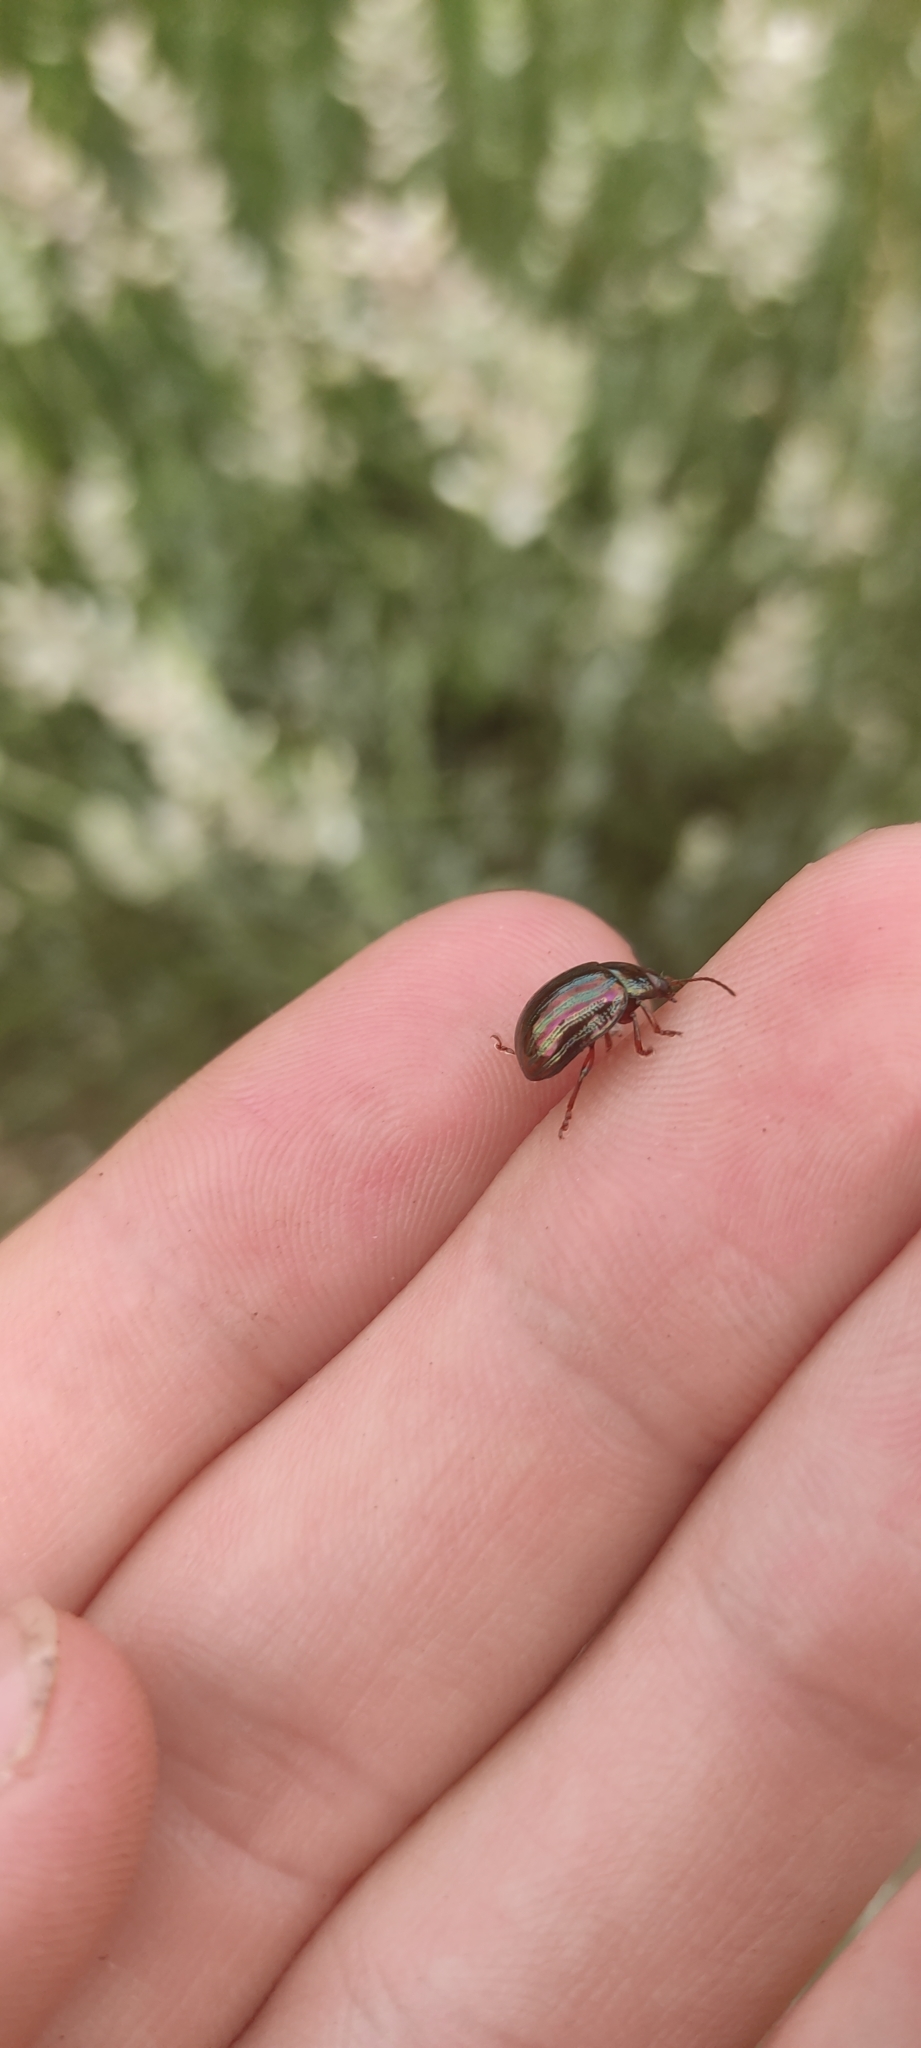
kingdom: Animalia
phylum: Arthropoda
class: Insecta
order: Coleoptera
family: Chrysomelidae
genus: Chrysolina
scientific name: Chrysolina americana
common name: Rosemary beetle
